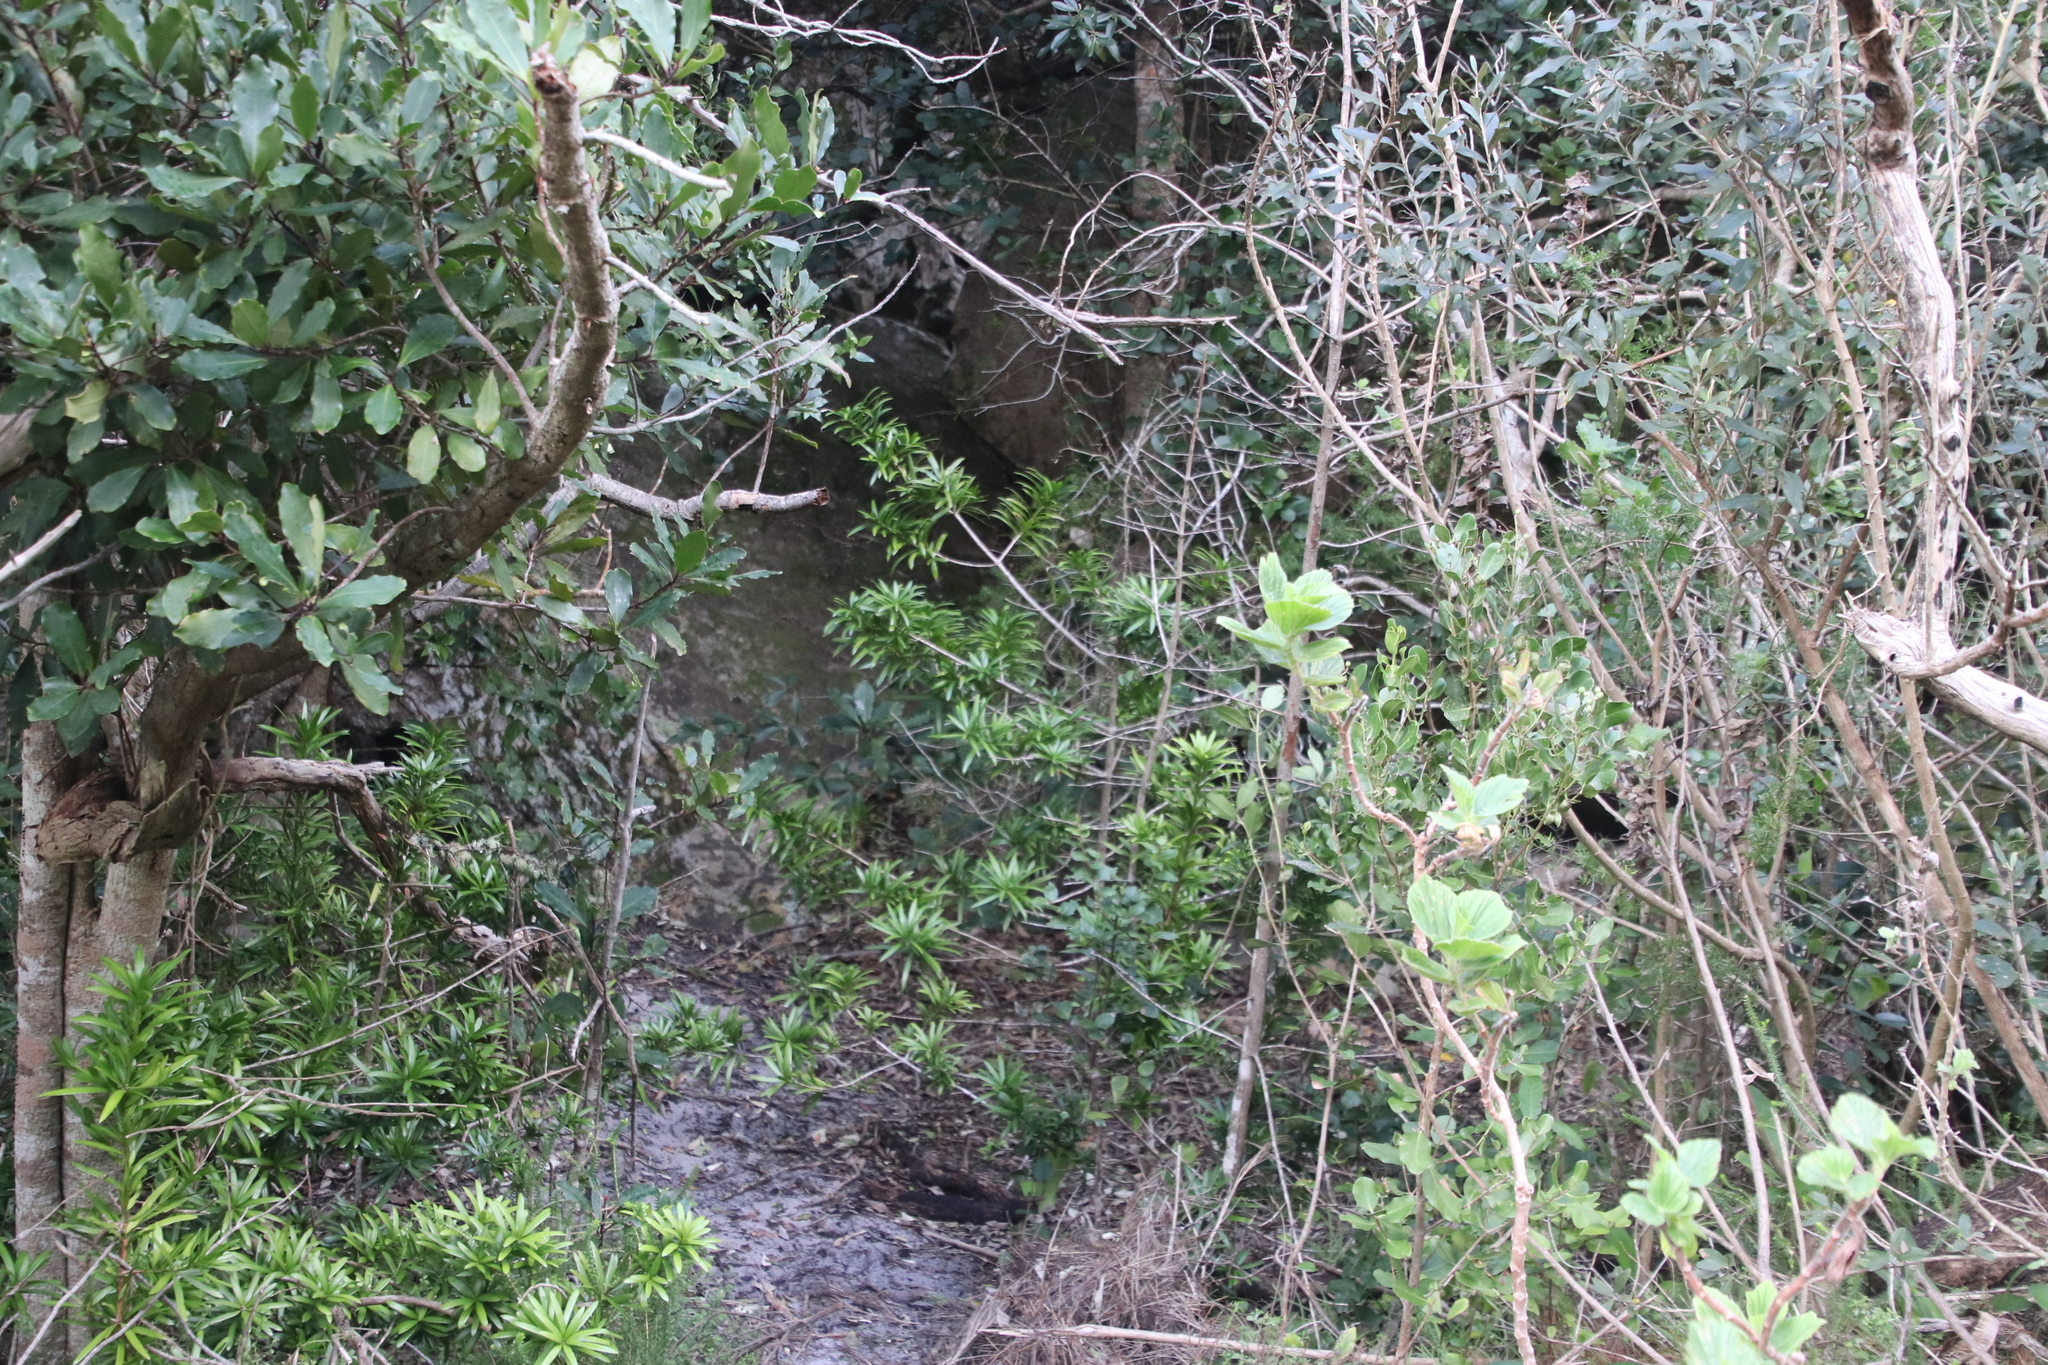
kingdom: Plantae
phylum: Tracheophyta
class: Pinopsida
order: Pinales
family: Podocarpaceae
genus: Podocarpus
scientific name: Podocarpus latifolius
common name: True yellowwood
